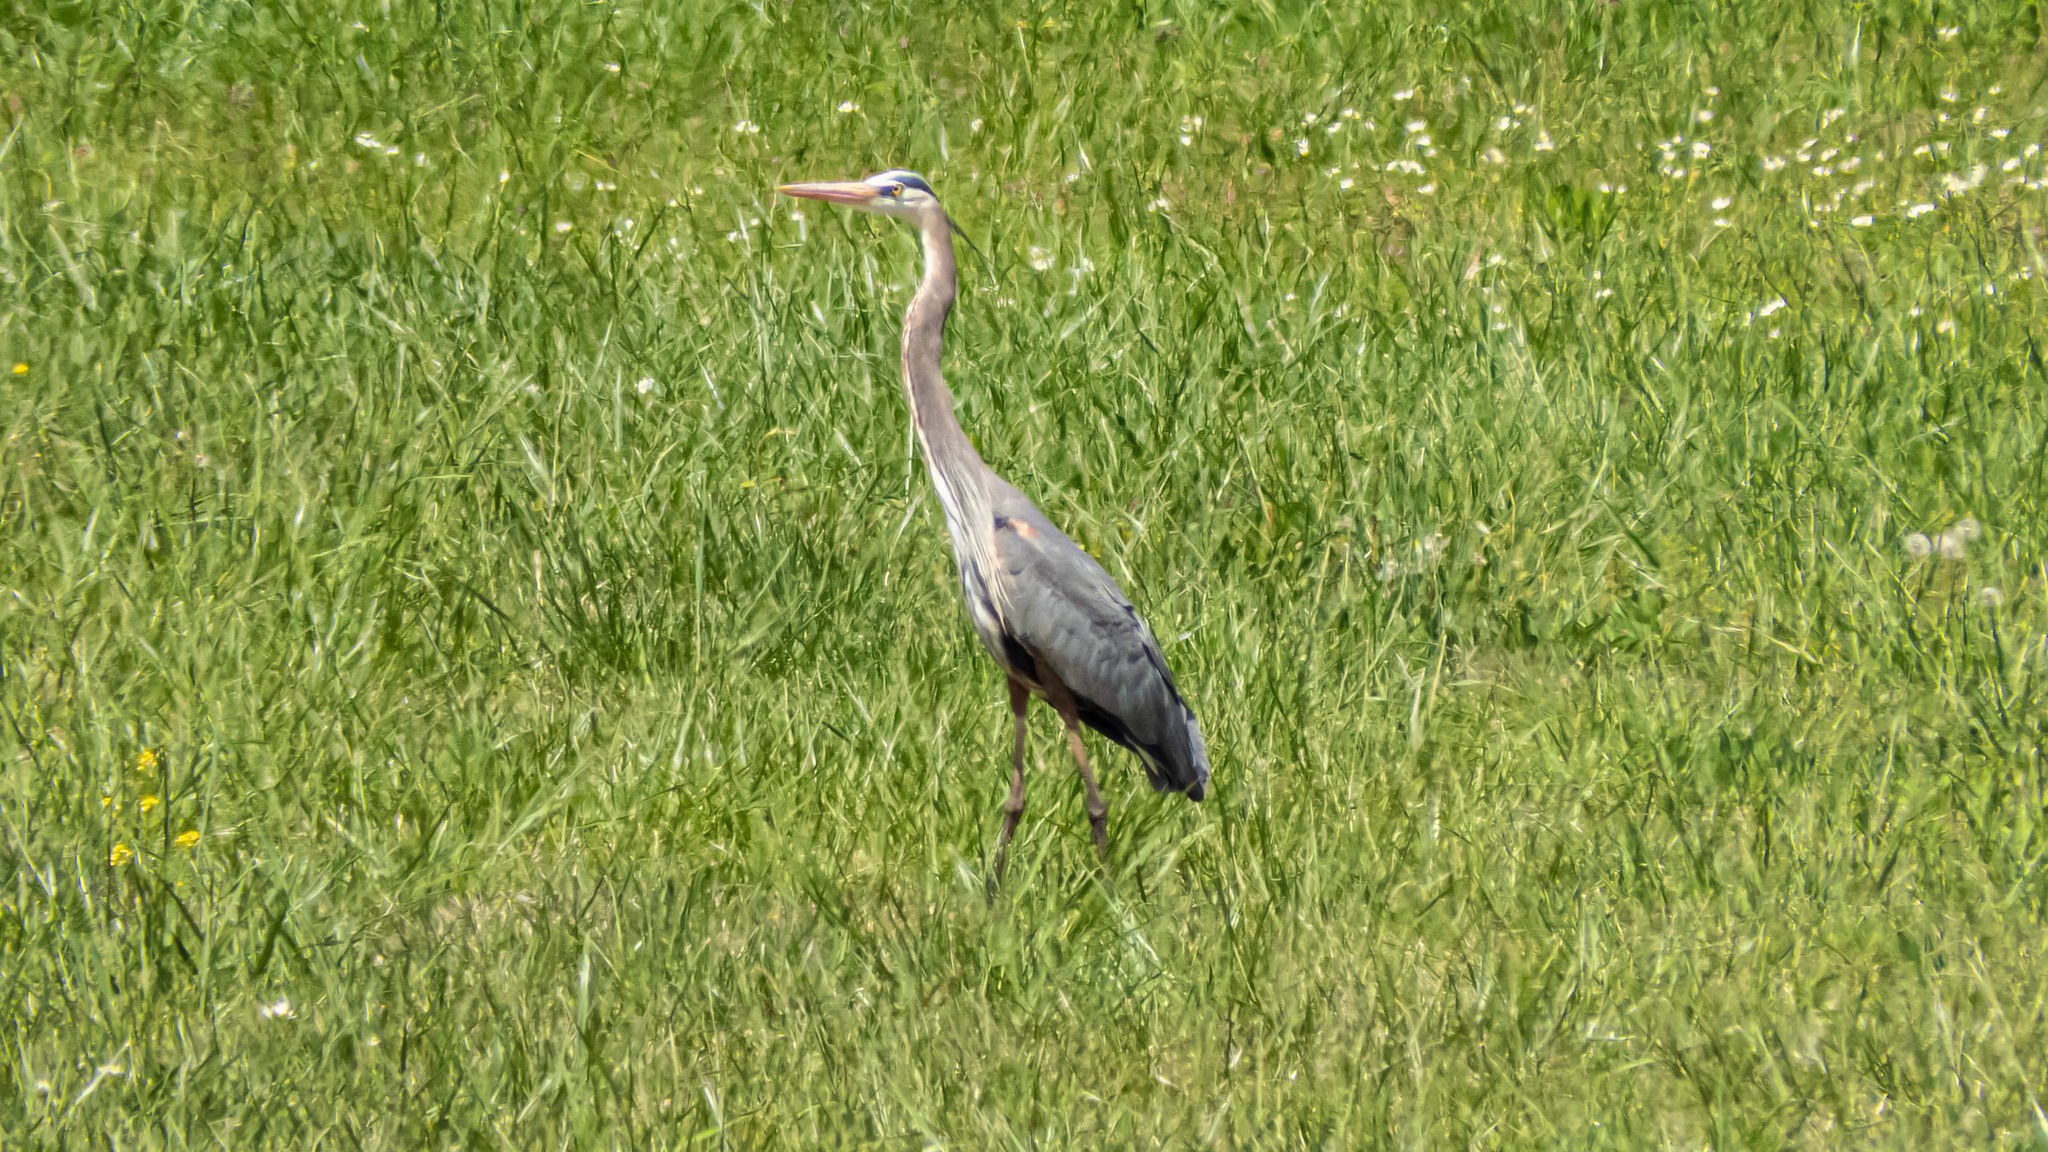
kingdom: Animalia
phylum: Chordata
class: Aves
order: Pelecaniformes
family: Ardeidae
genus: Ardea
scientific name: Ardea herodias
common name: Great blue heron
